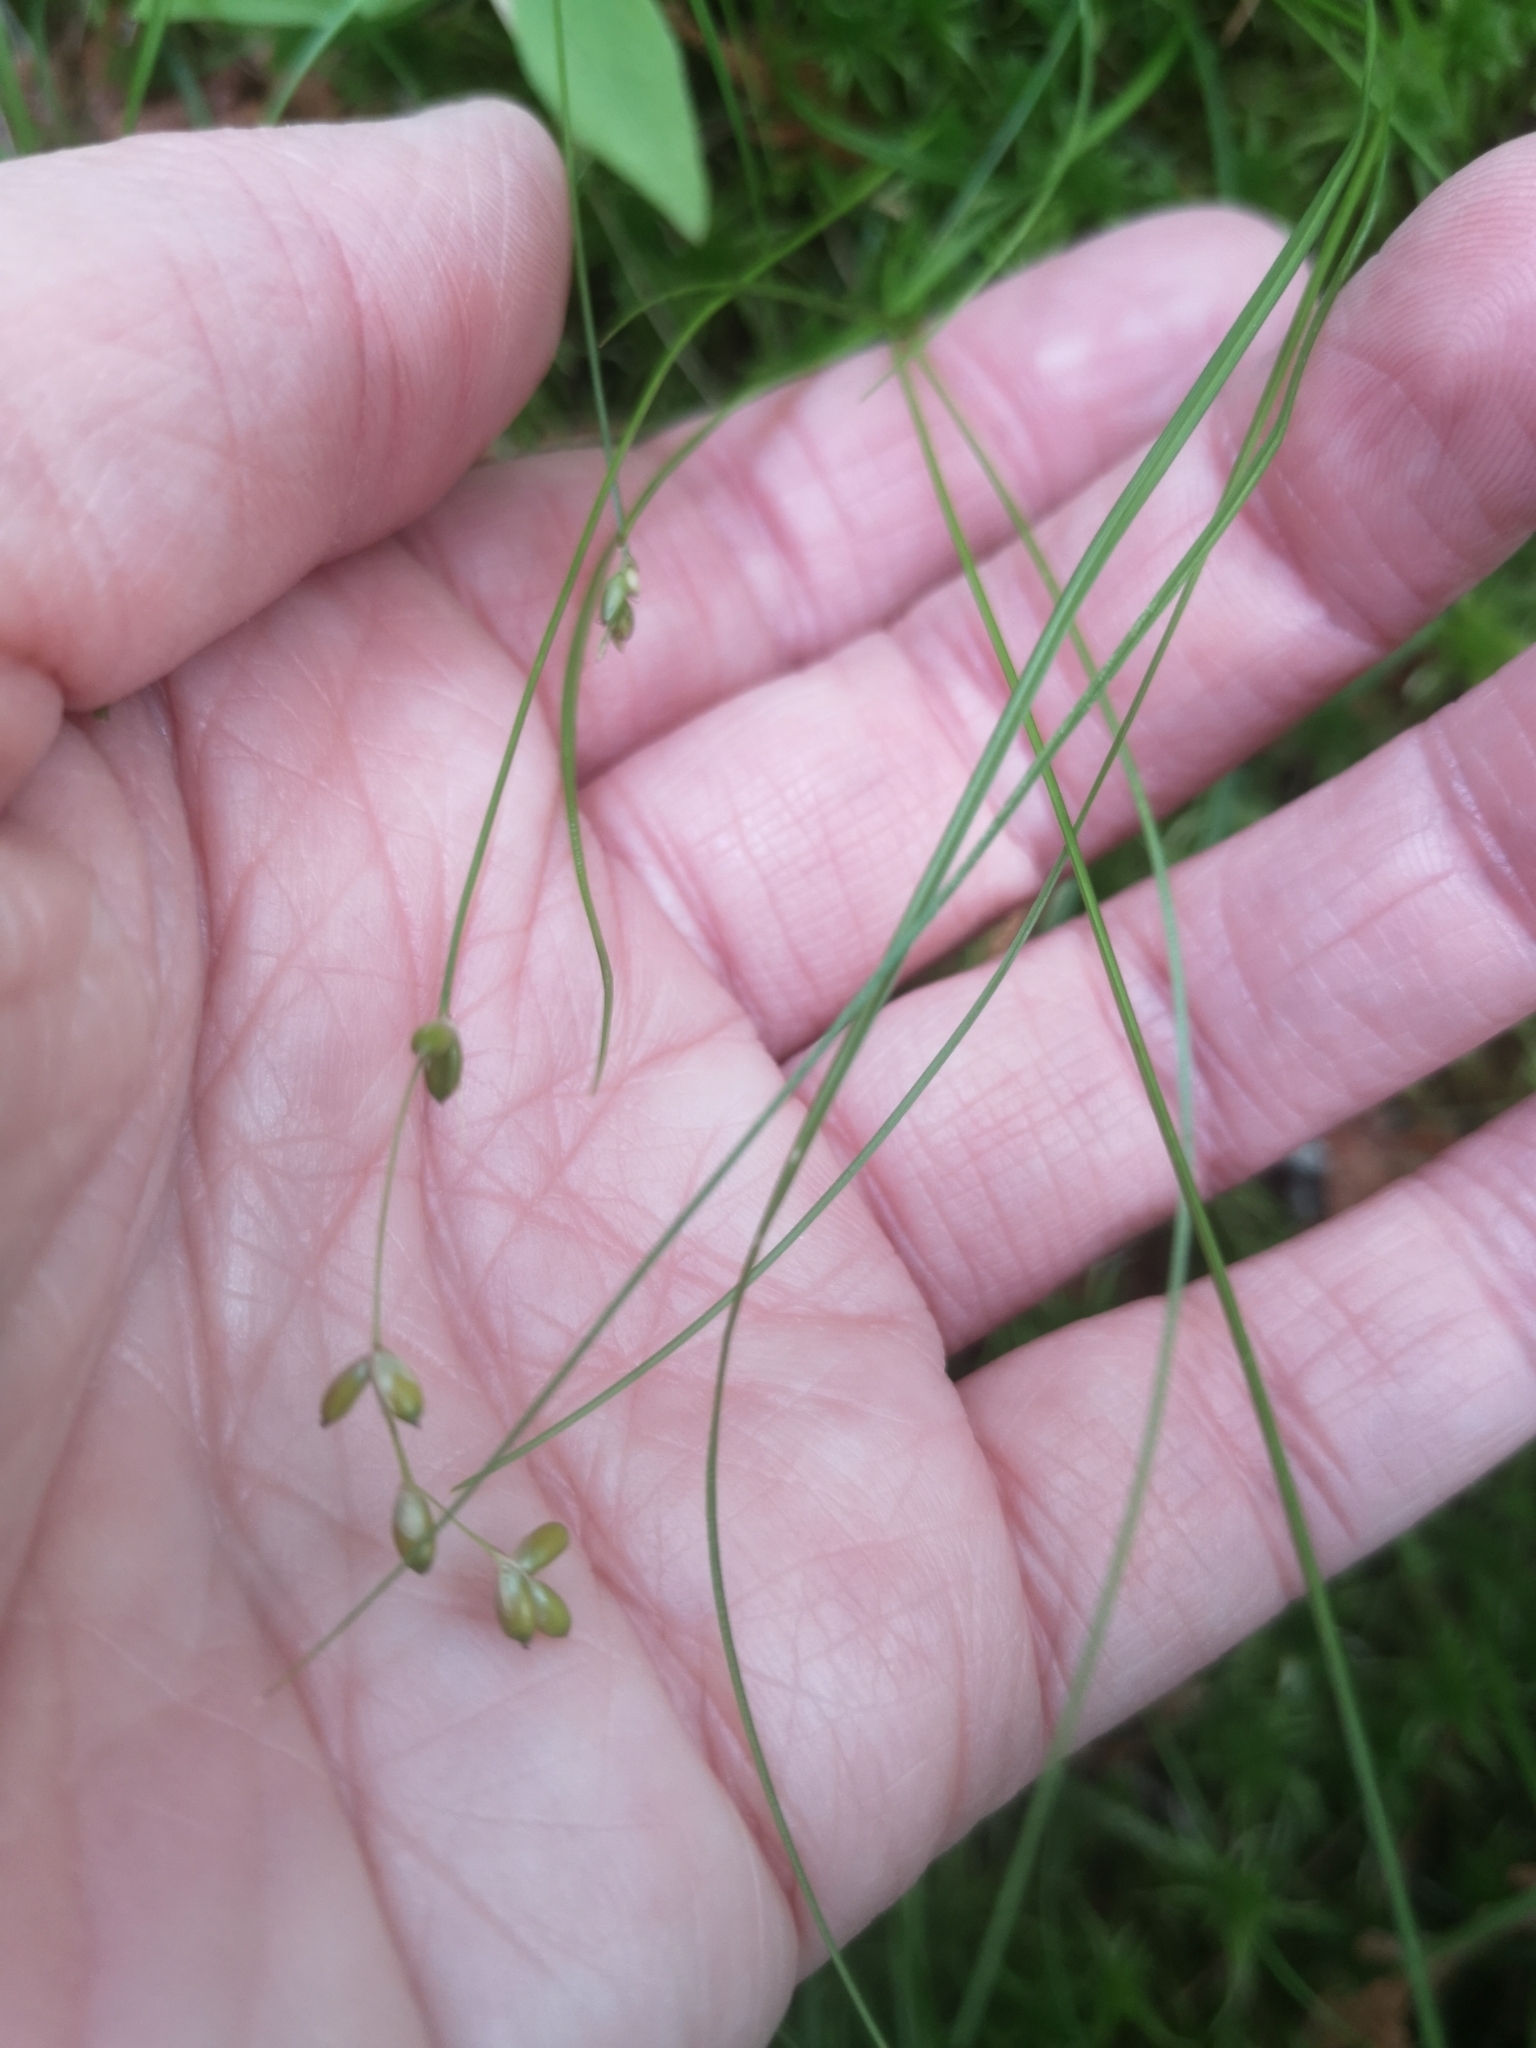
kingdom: Plantae
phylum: Tracheophyta
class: Liliopsida
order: Poales
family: Cyperaceae
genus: Carex
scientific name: Carex disperma
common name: Short-leaved sedge
